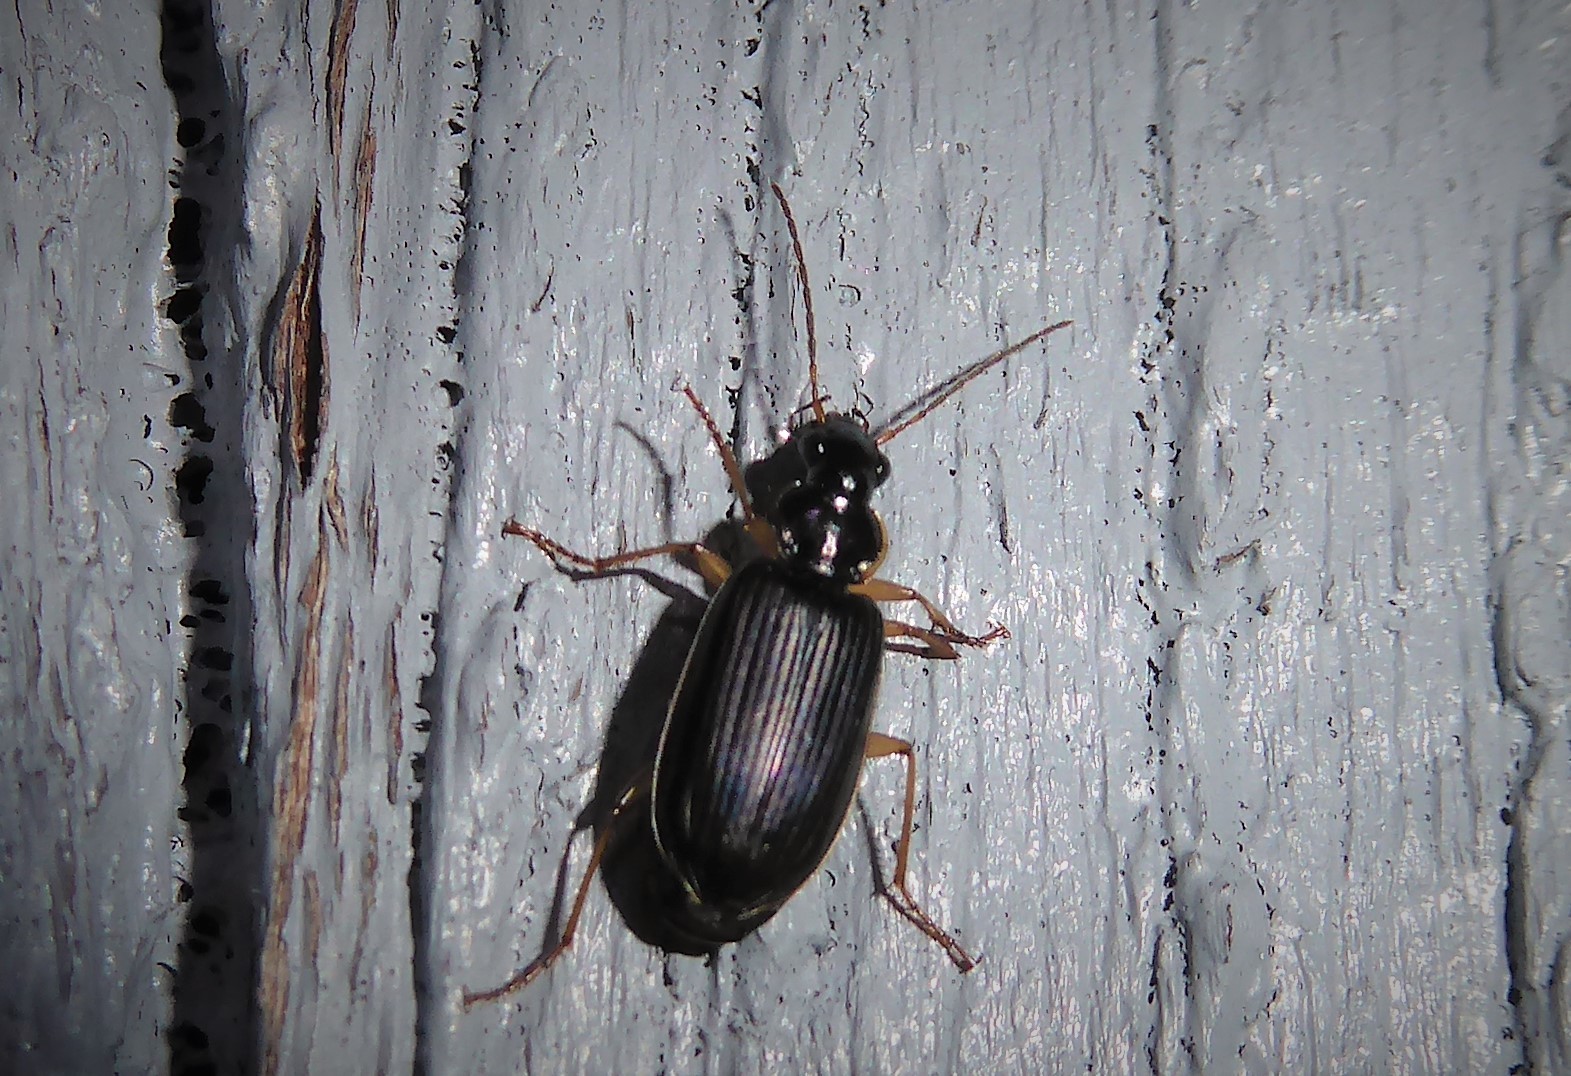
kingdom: Animalia
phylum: Arthropoda
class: Insecta
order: Coleoptera
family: Carabidae
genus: Notagonum
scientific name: Notagonum submetallicum
